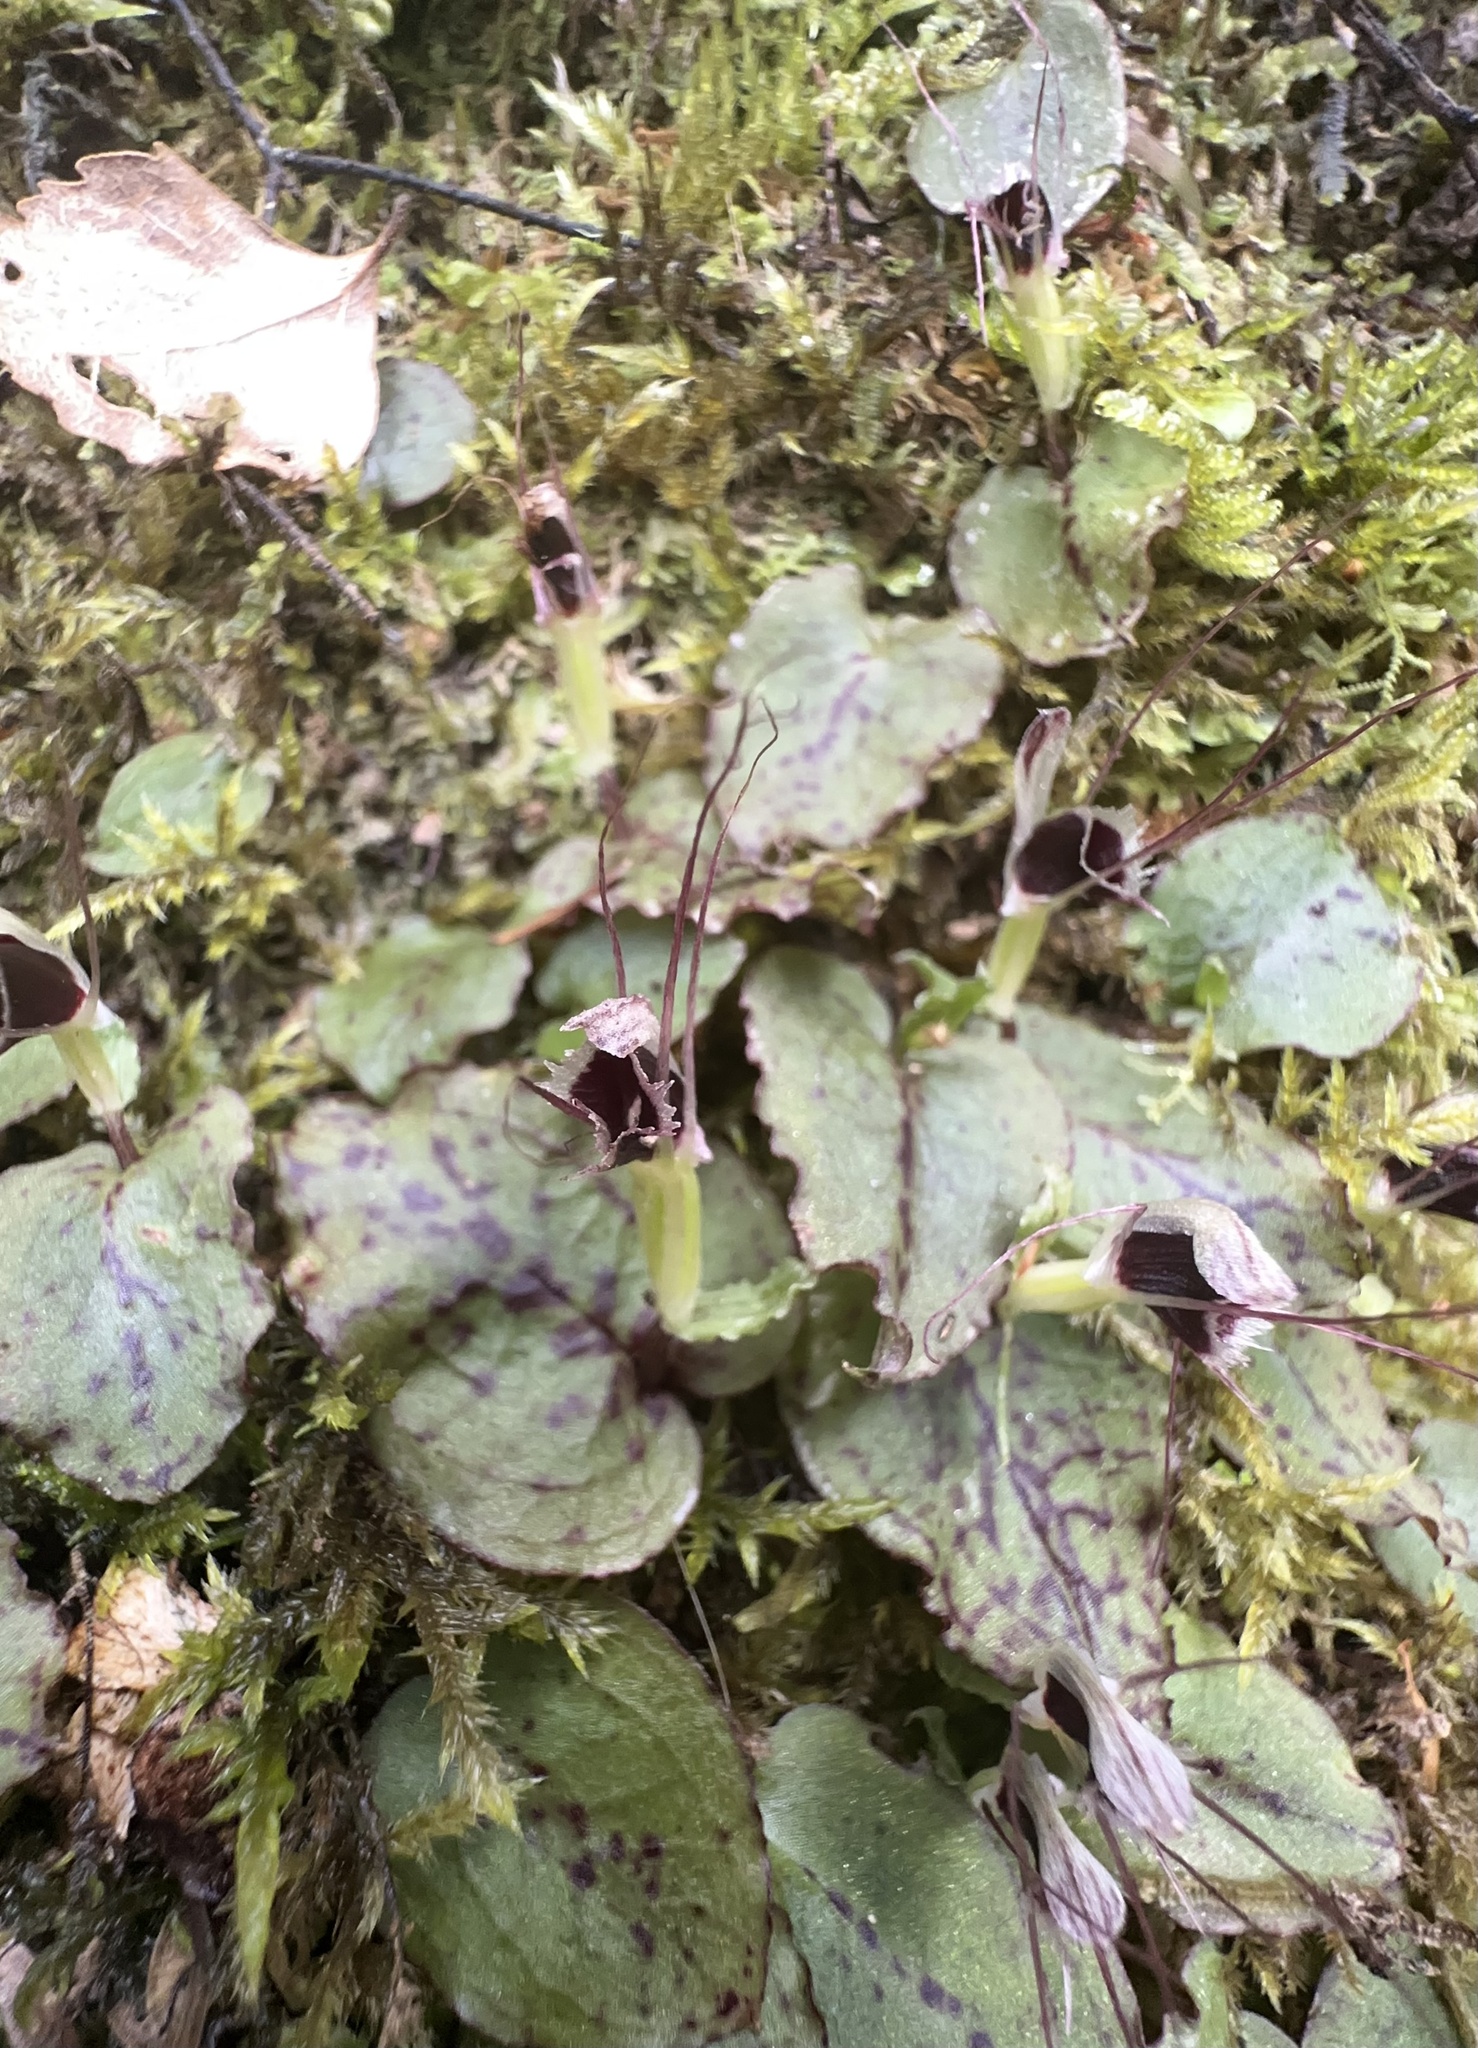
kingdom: Plantae
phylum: Tracheophyta
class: Liliopsida
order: Asparagales
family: Orchidaceae
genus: Corybas
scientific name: Corybas oblongus
